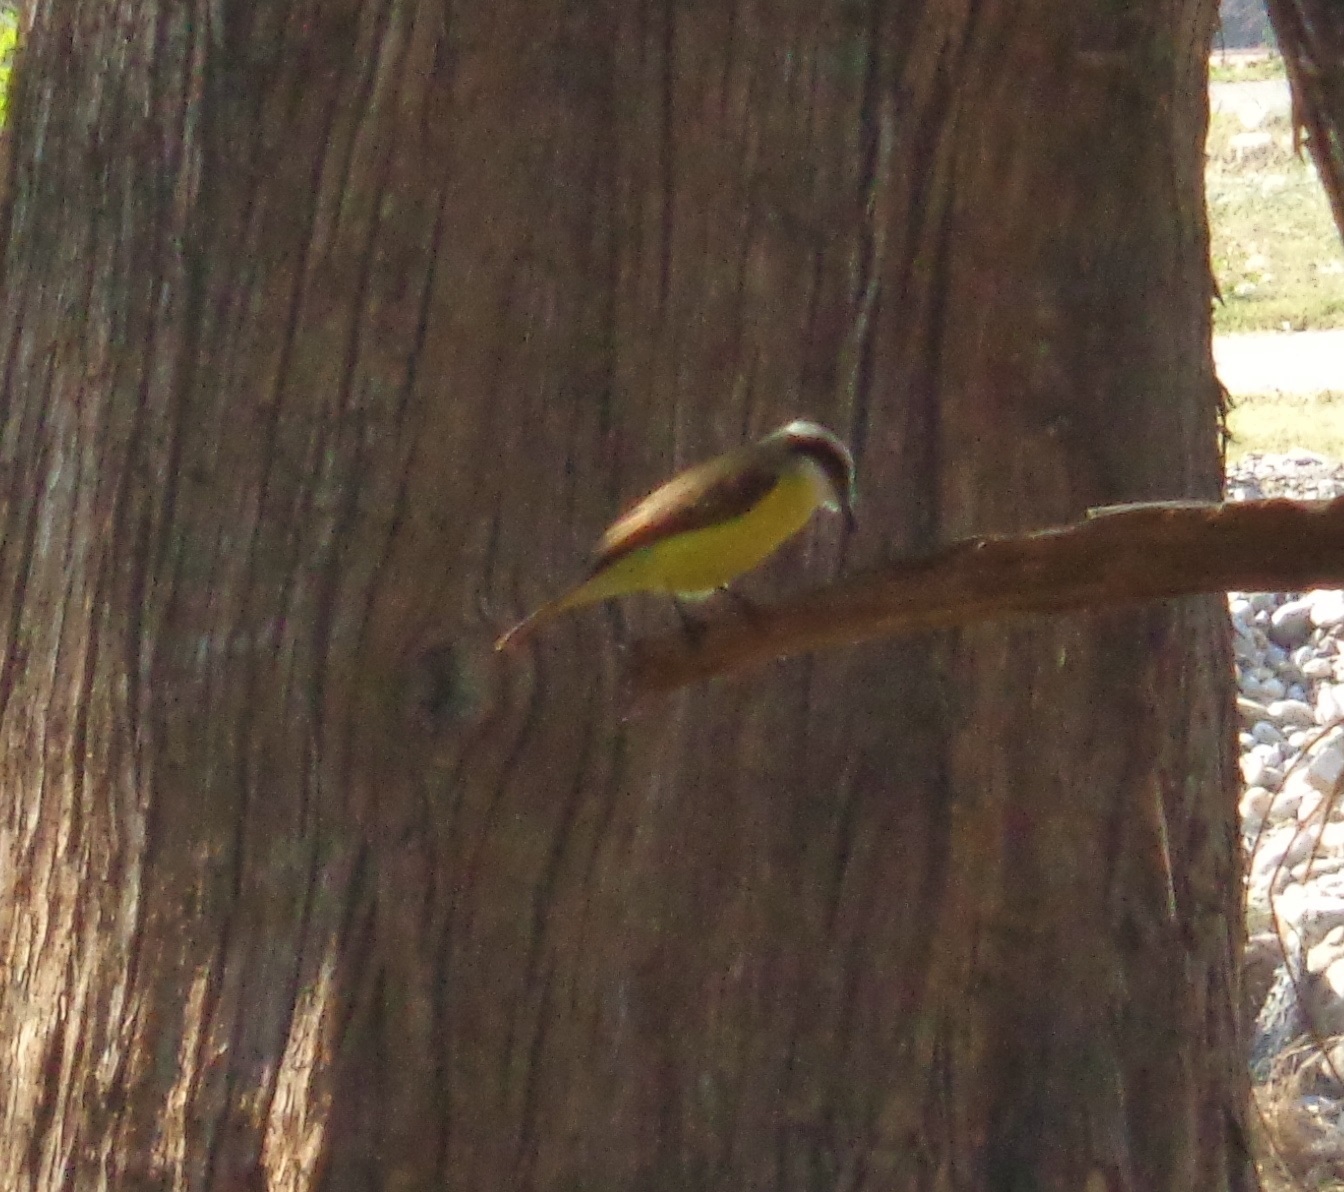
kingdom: Animalia
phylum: Chordata
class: Aves
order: Passeriformes
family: Tyrannidae
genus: Pitangus
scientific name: Pitangus sulphuratus
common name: Great kiskadee
